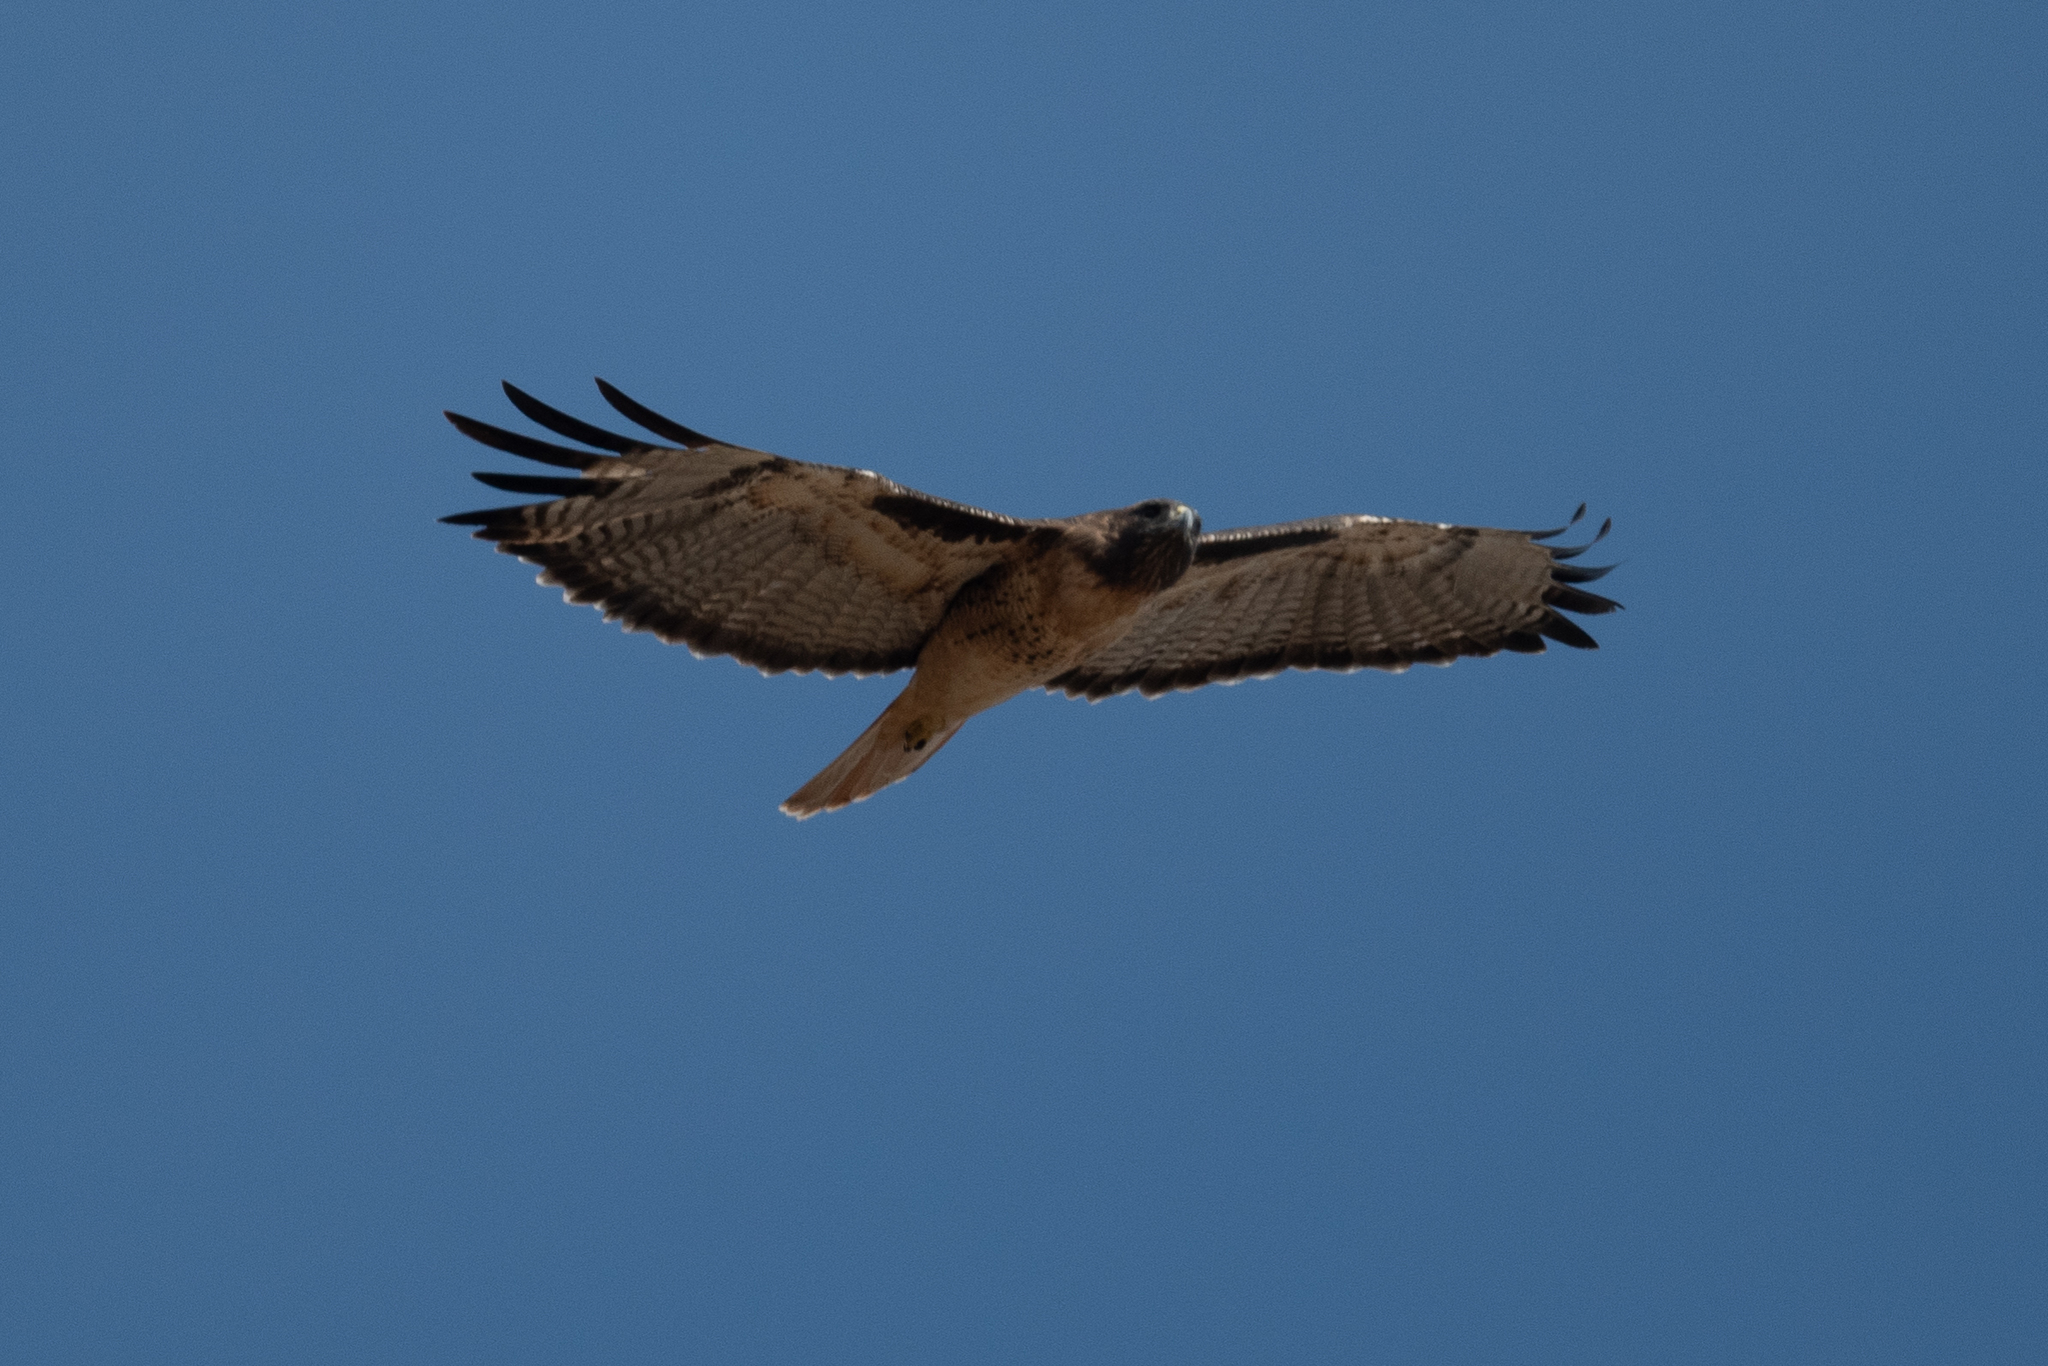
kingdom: Animalia
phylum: Chordata
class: Aves
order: Accipitriformes
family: Accipitridae
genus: Buteo
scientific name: Buteo jamaicensis
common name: Red-tailed hawk
